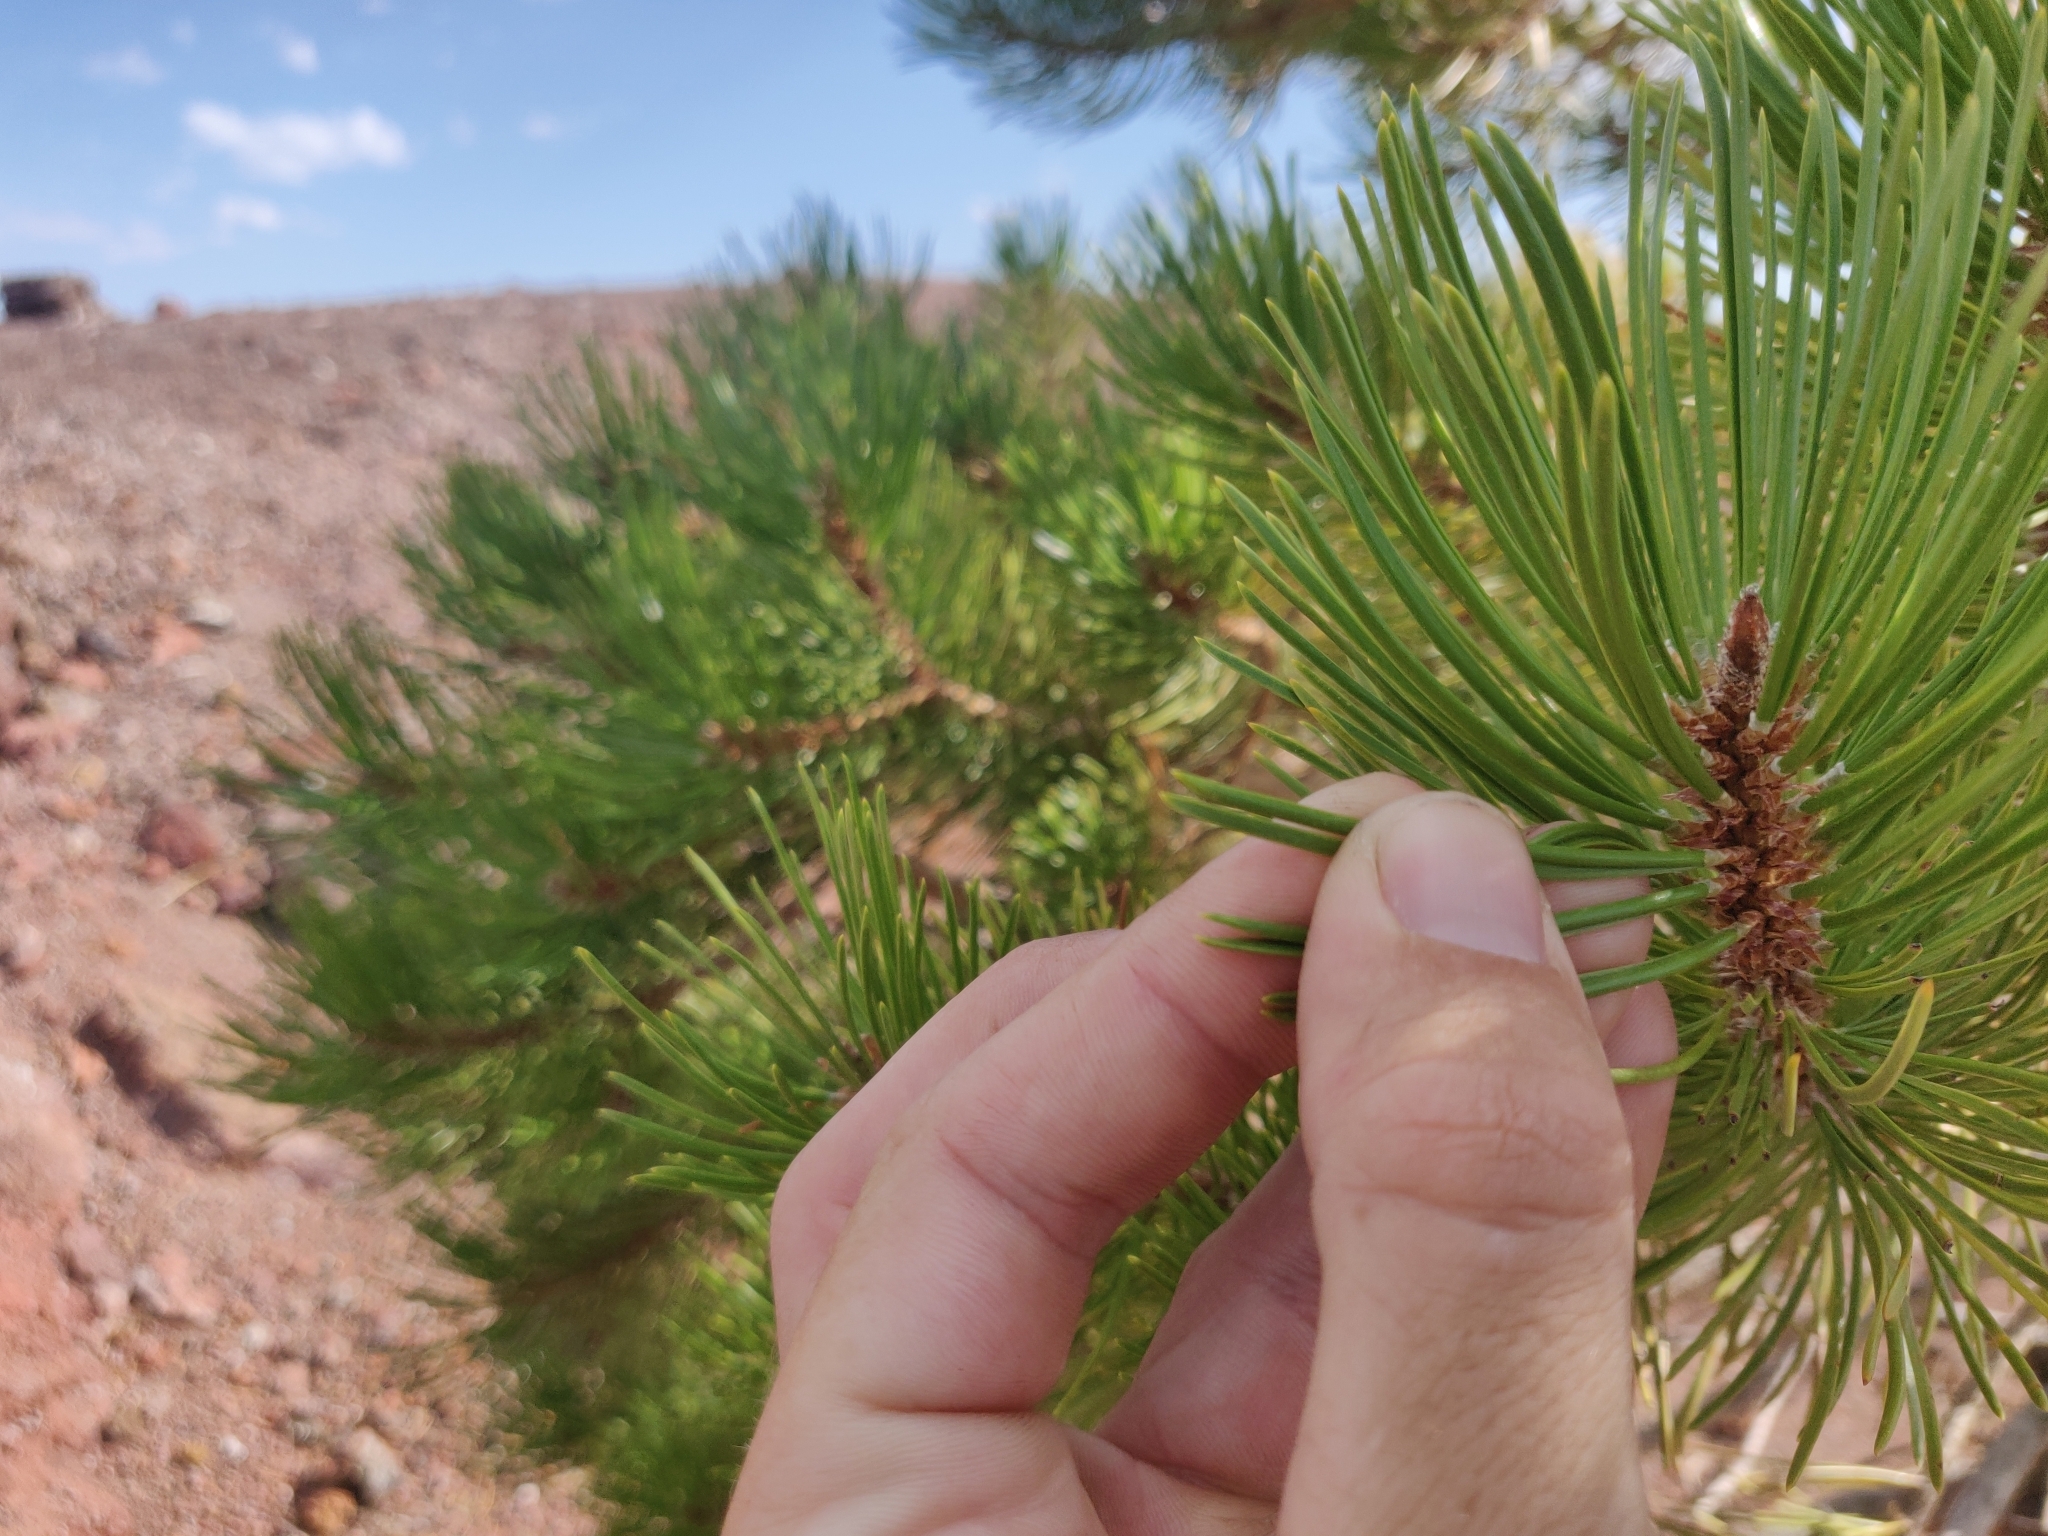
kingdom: Plantae
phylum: Tracheophyta
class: Pinopsida
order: Pinales
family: Pinaceae
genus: Pinus
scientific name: Pinus contorta
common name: Lodgepole pine
